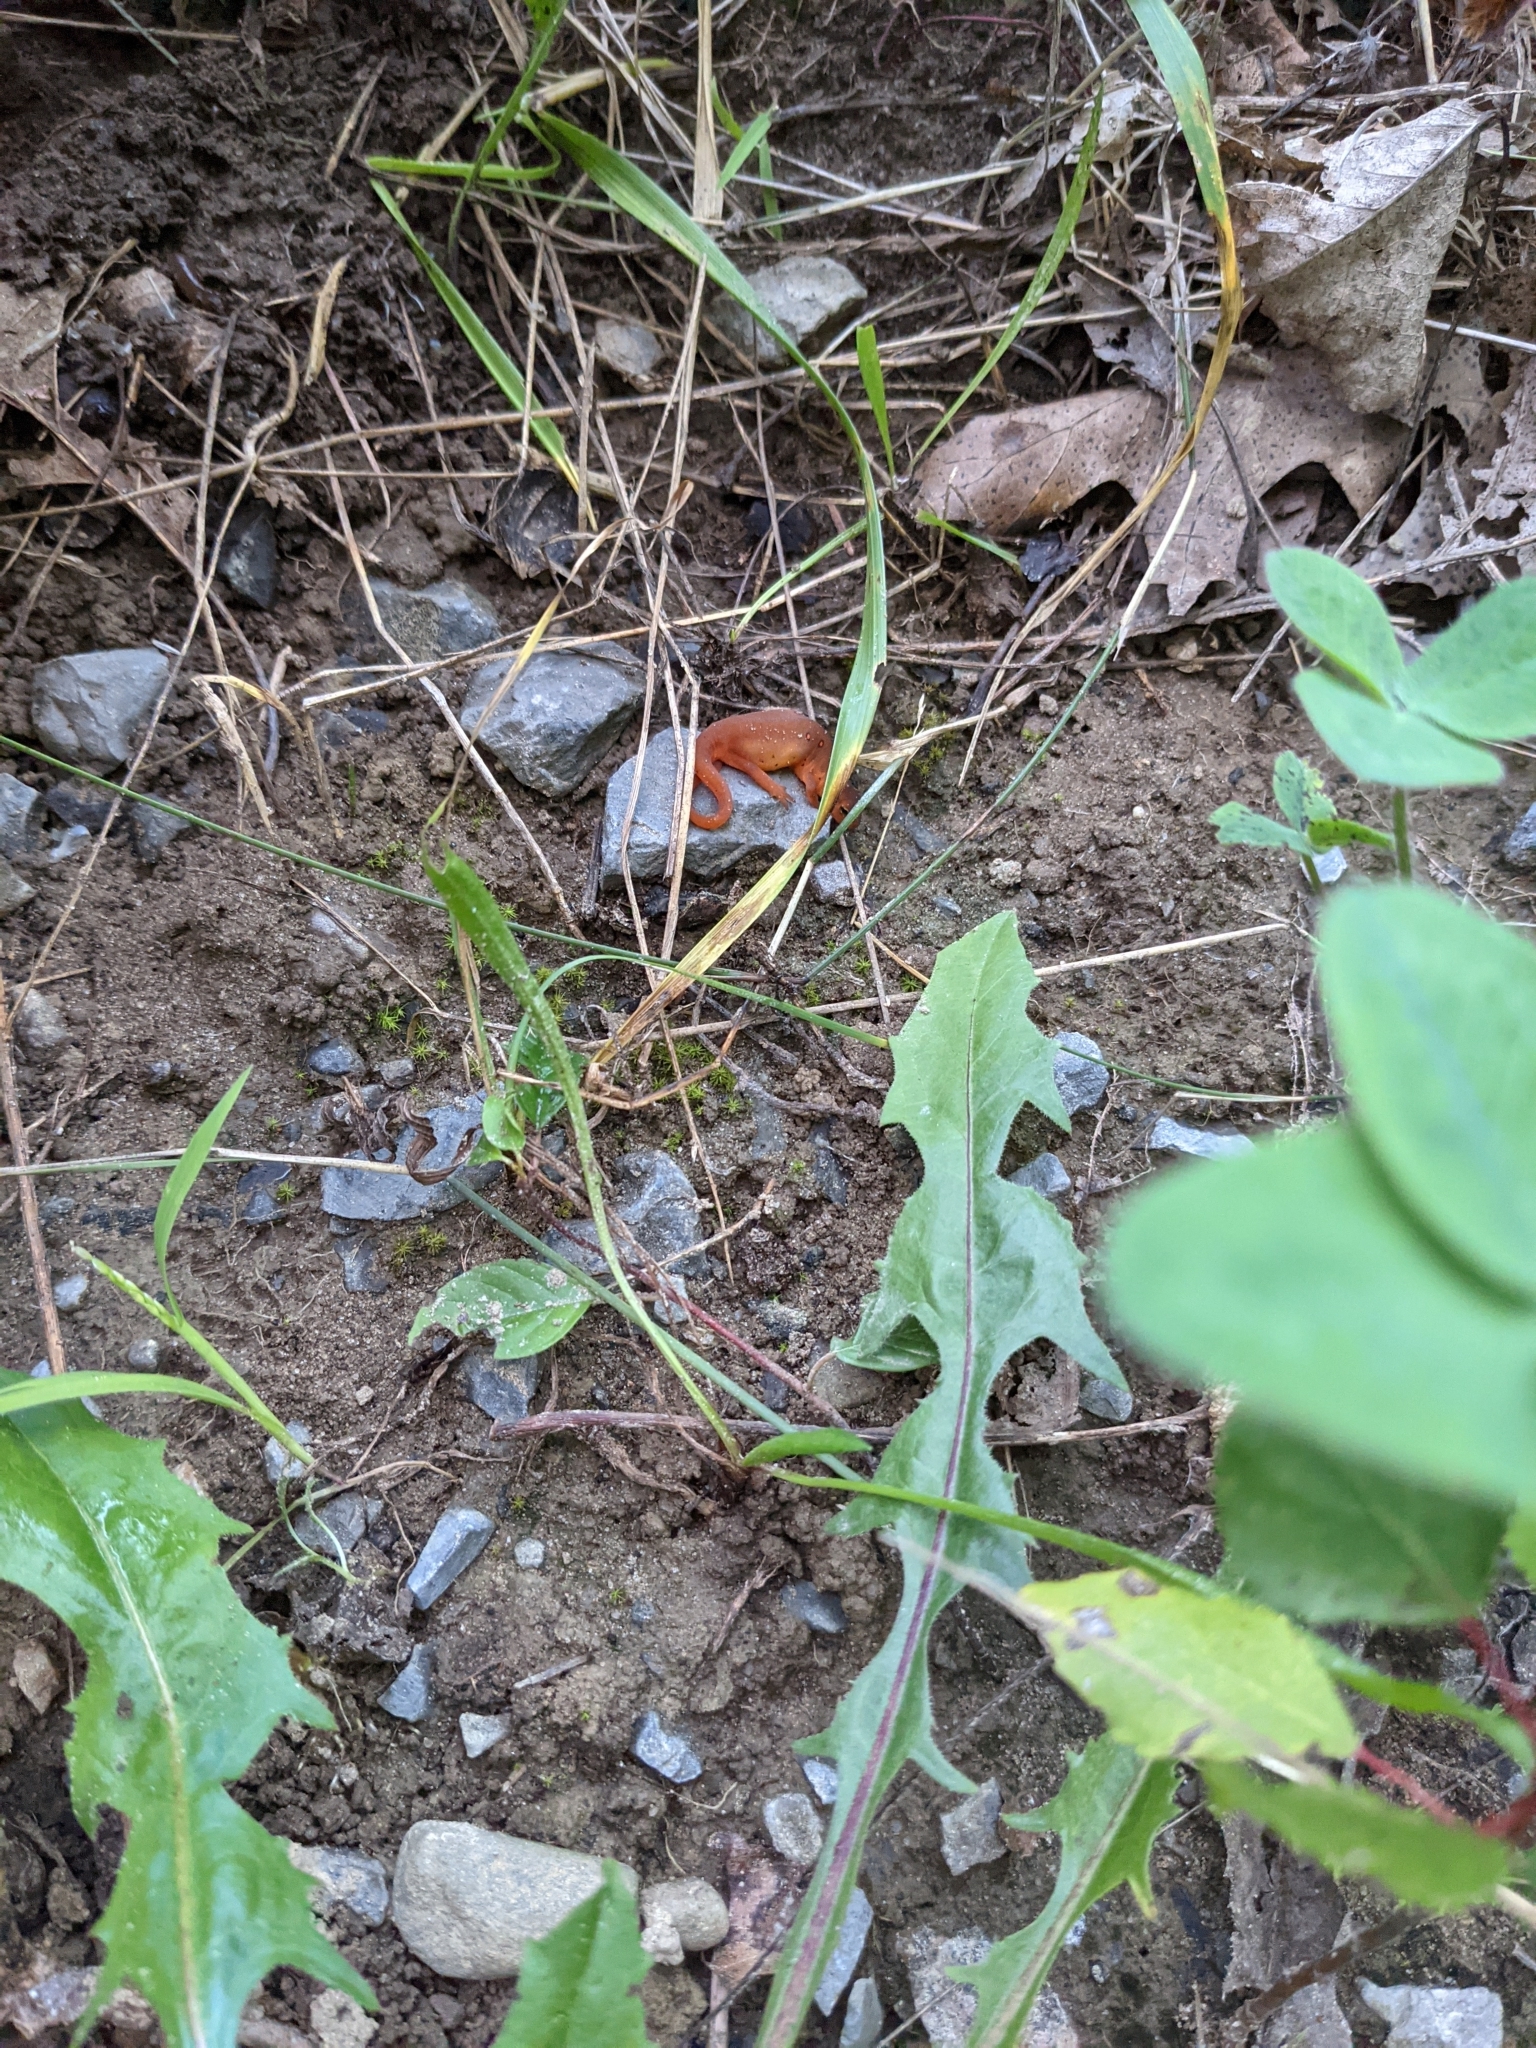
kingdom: Animalia
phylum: Chordata
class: Amphibia
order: Caudata
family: Salamandridae
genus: Notophthalmus
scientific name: Notophthalmus viridescens
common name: Eastern newt
